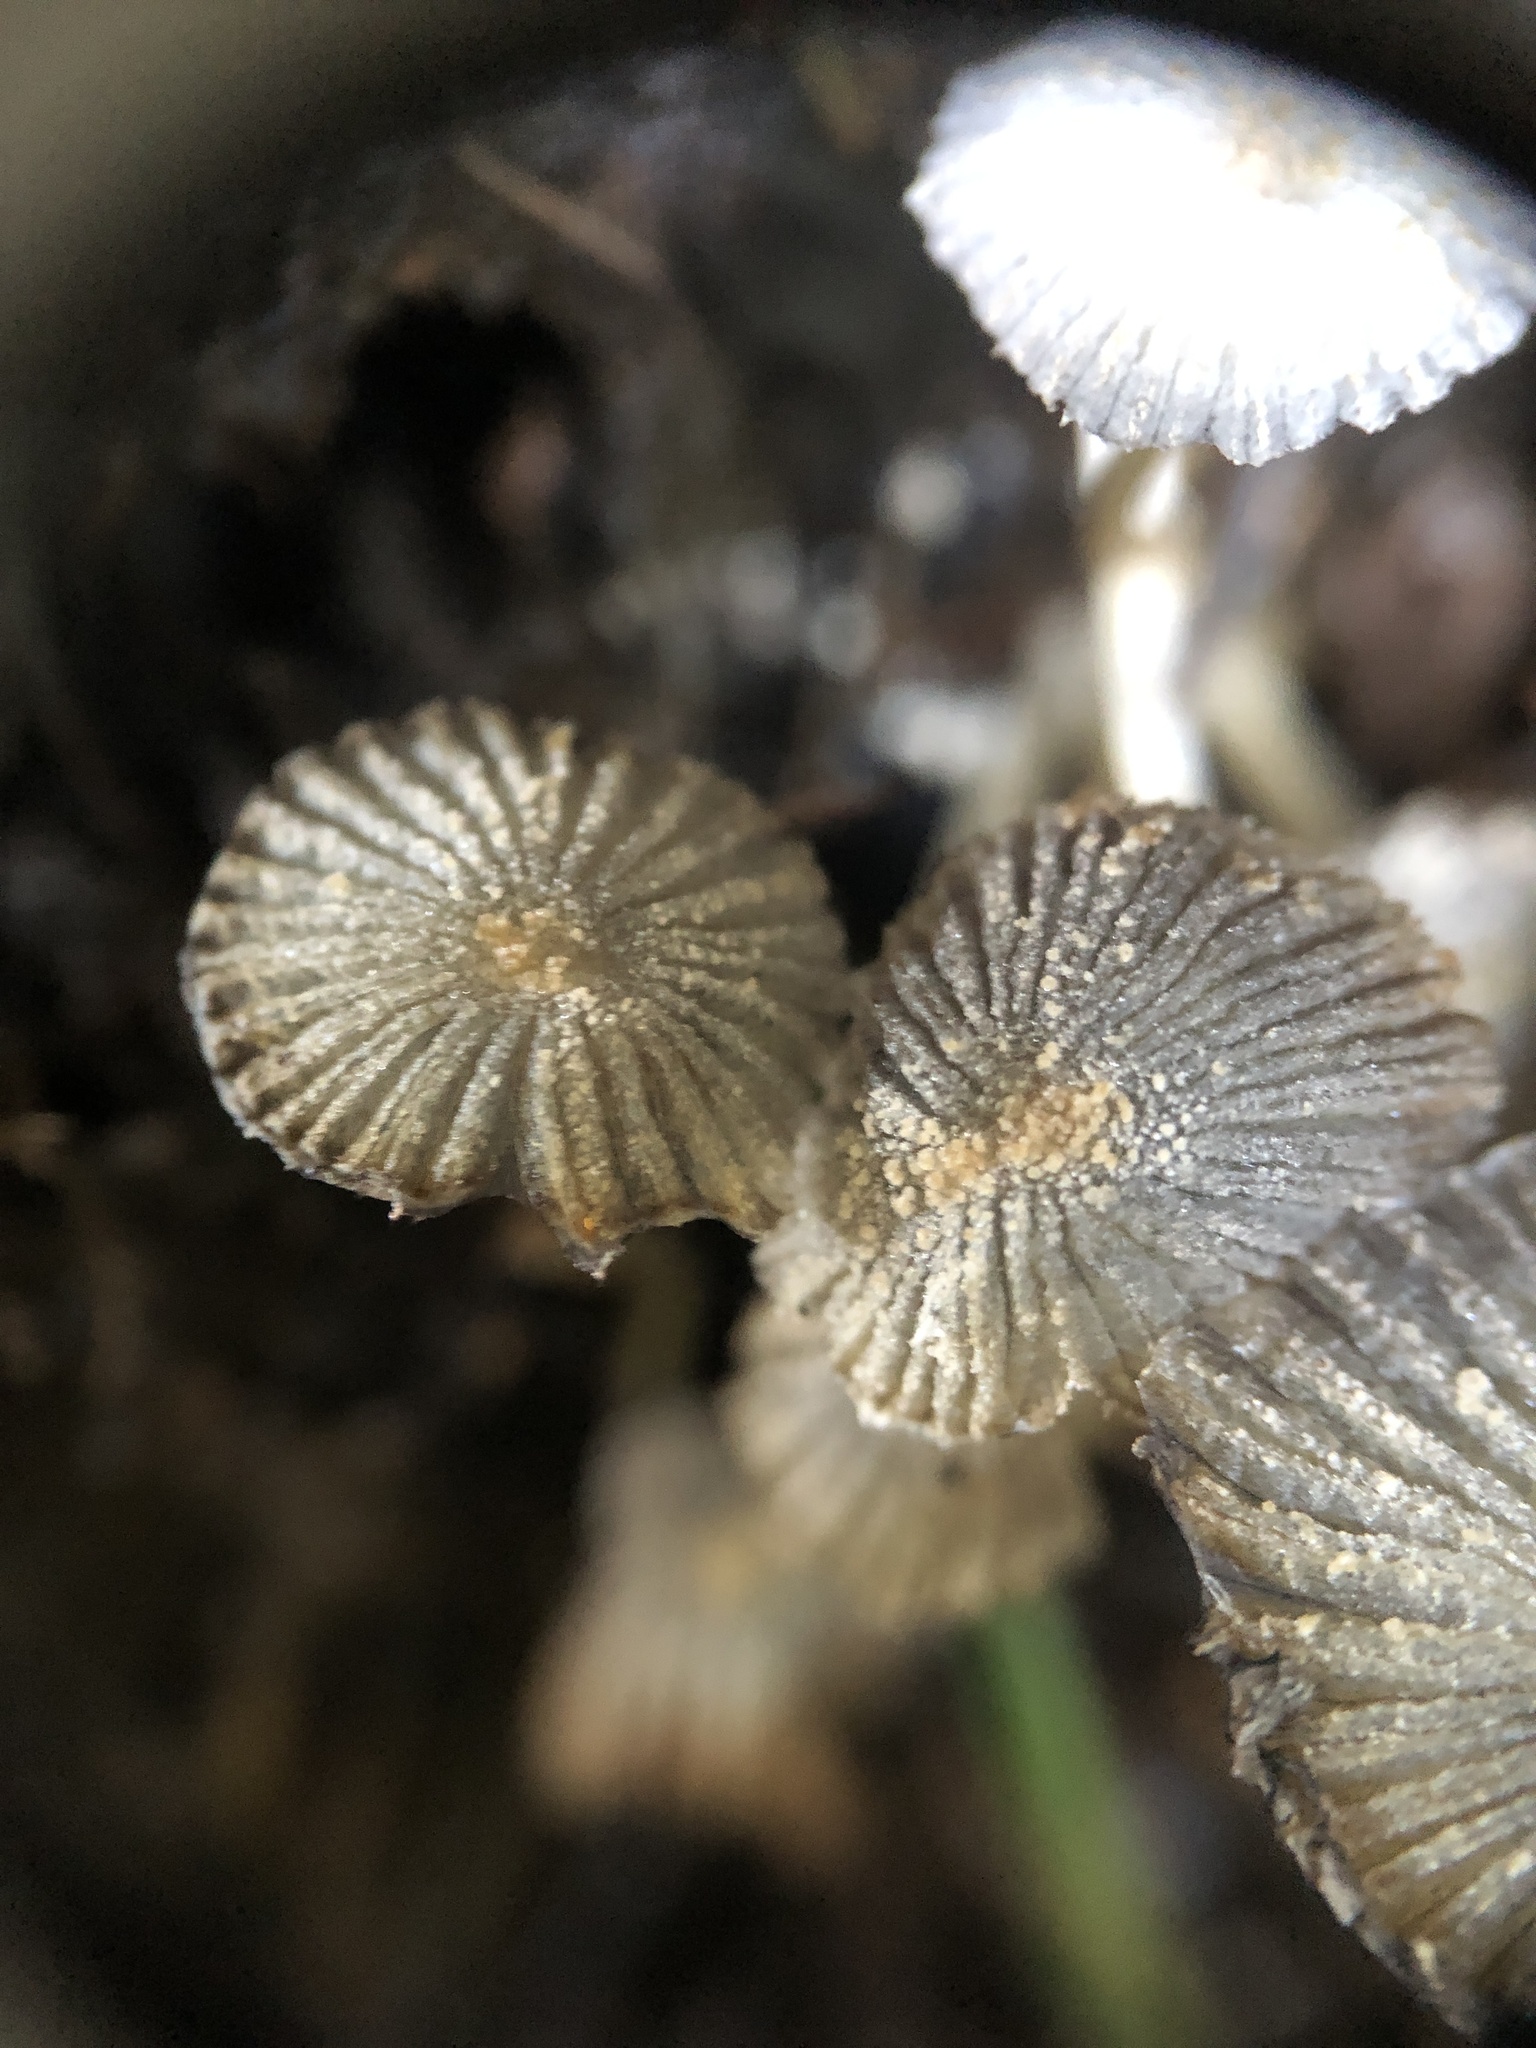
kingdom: Fungi
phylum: Basidiomycota
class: Agaricomycetes
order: Agaricales
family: Psathyrellaceae
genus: Parasola
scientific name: Parasola plicatilis
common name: Pleated inkcap
